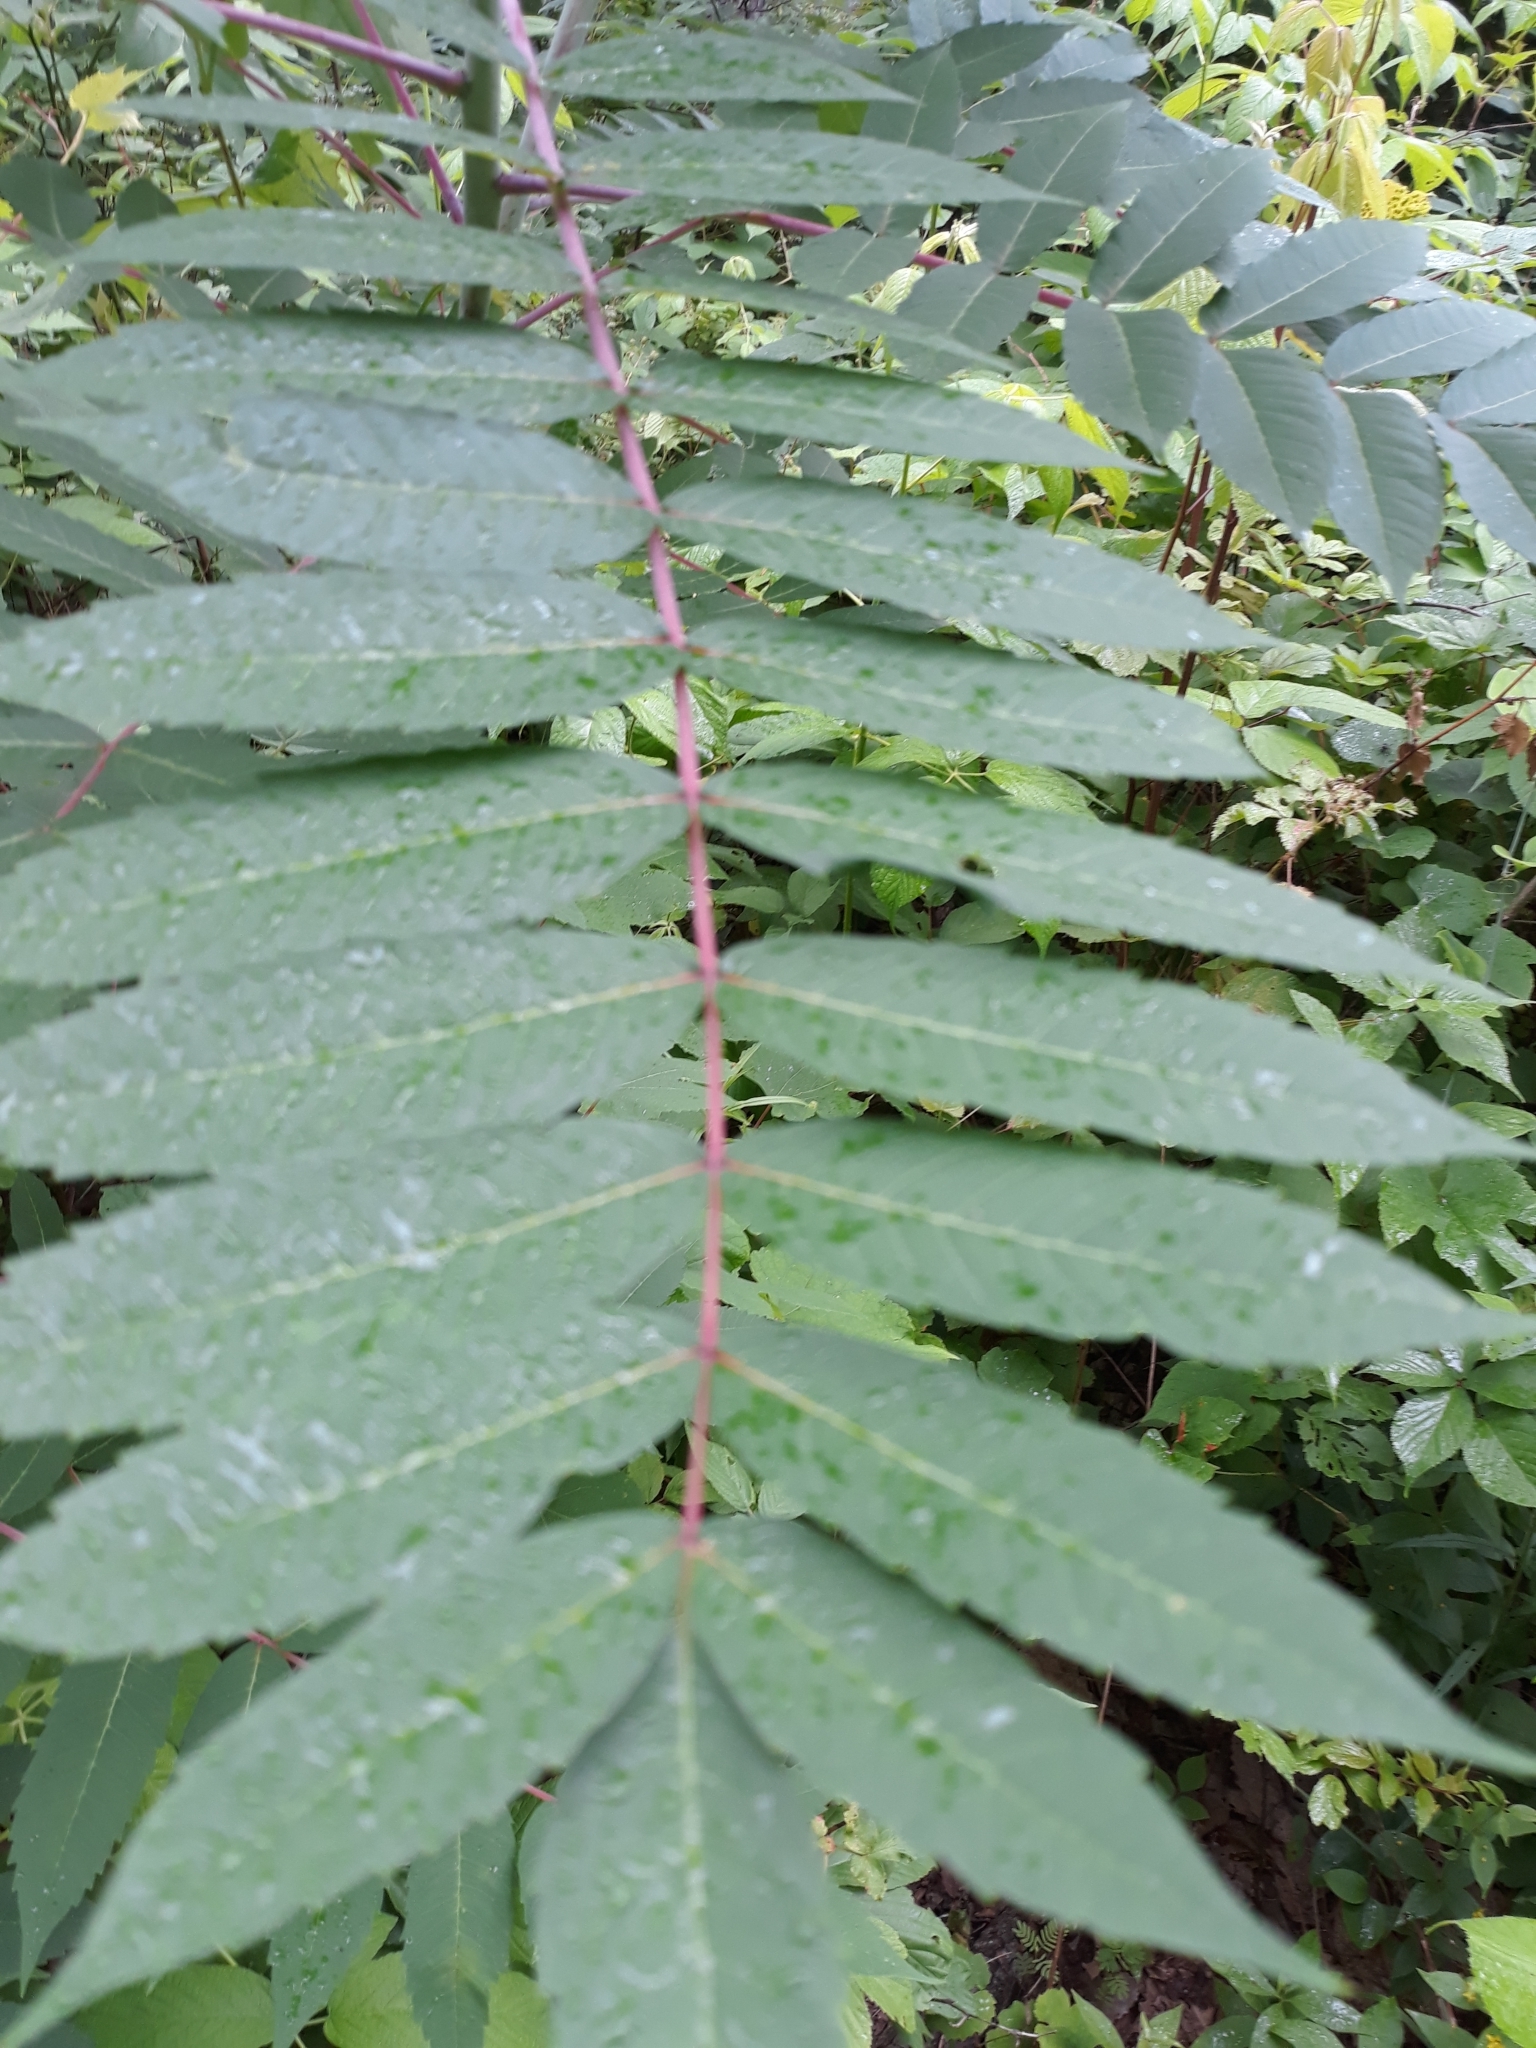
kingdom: Plantae
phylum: Tracheophyta
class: Magnoliopsida
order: Sapindales
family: Anacardiaceae
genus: Rhus
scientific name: Rhus glabra
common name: Scarlet sumac
